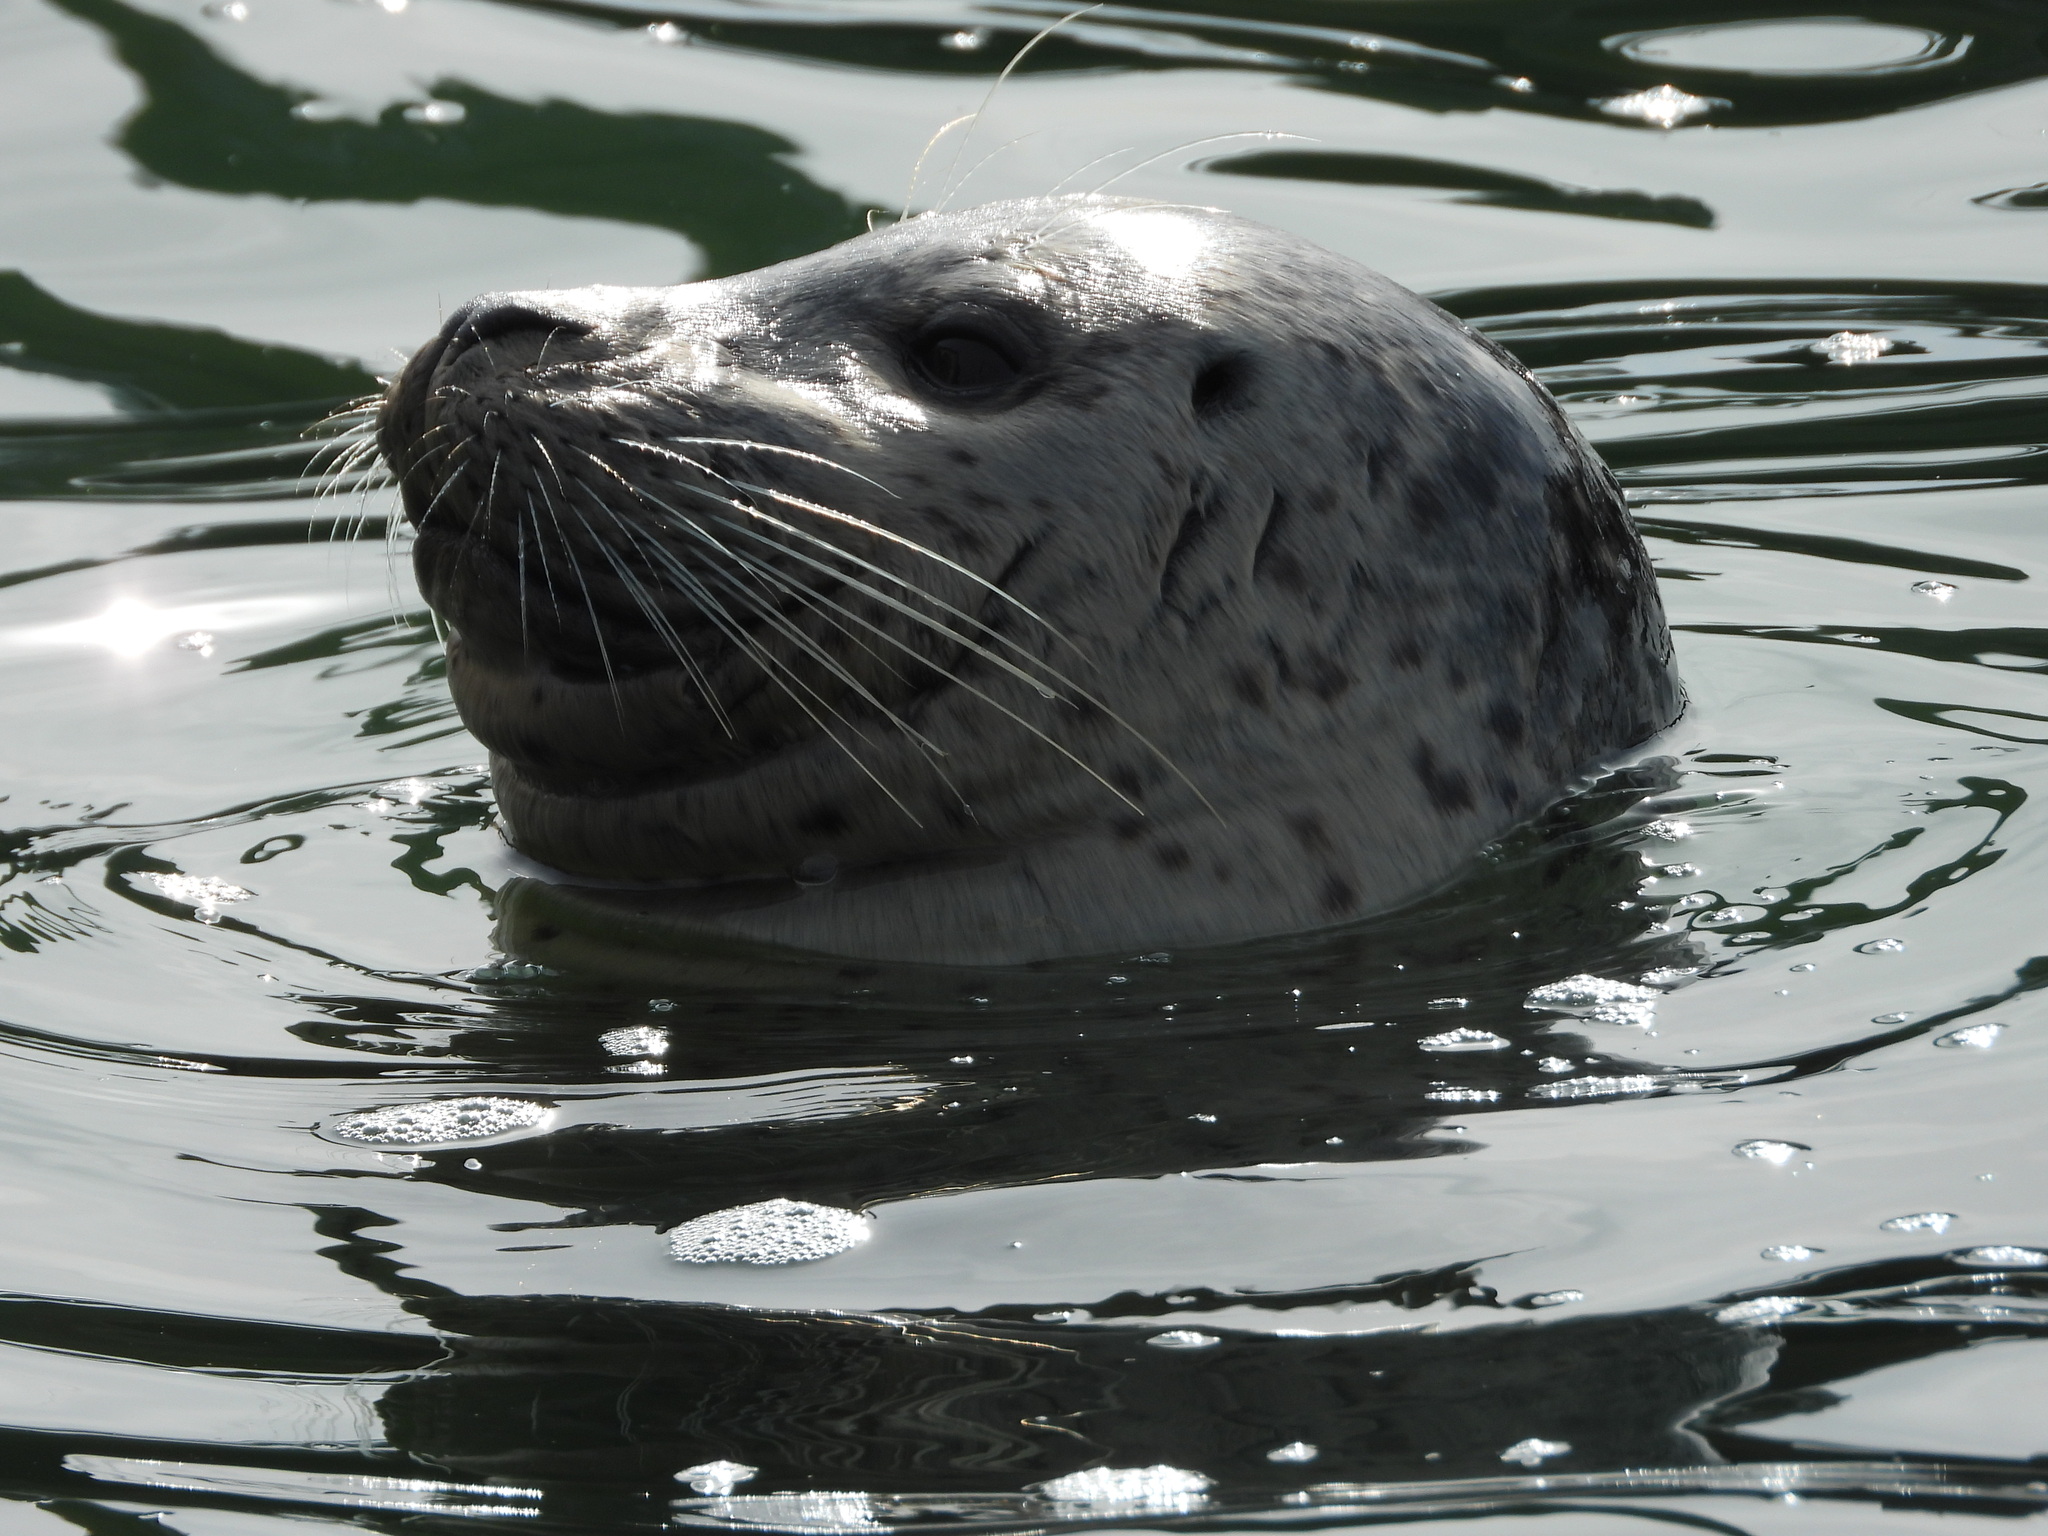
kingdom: Animalia
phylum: Chordata
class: Mammalia
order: Carnivora
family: Phocidae
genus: Phoca
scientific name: Phoca vitulina
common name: Harbor seal
